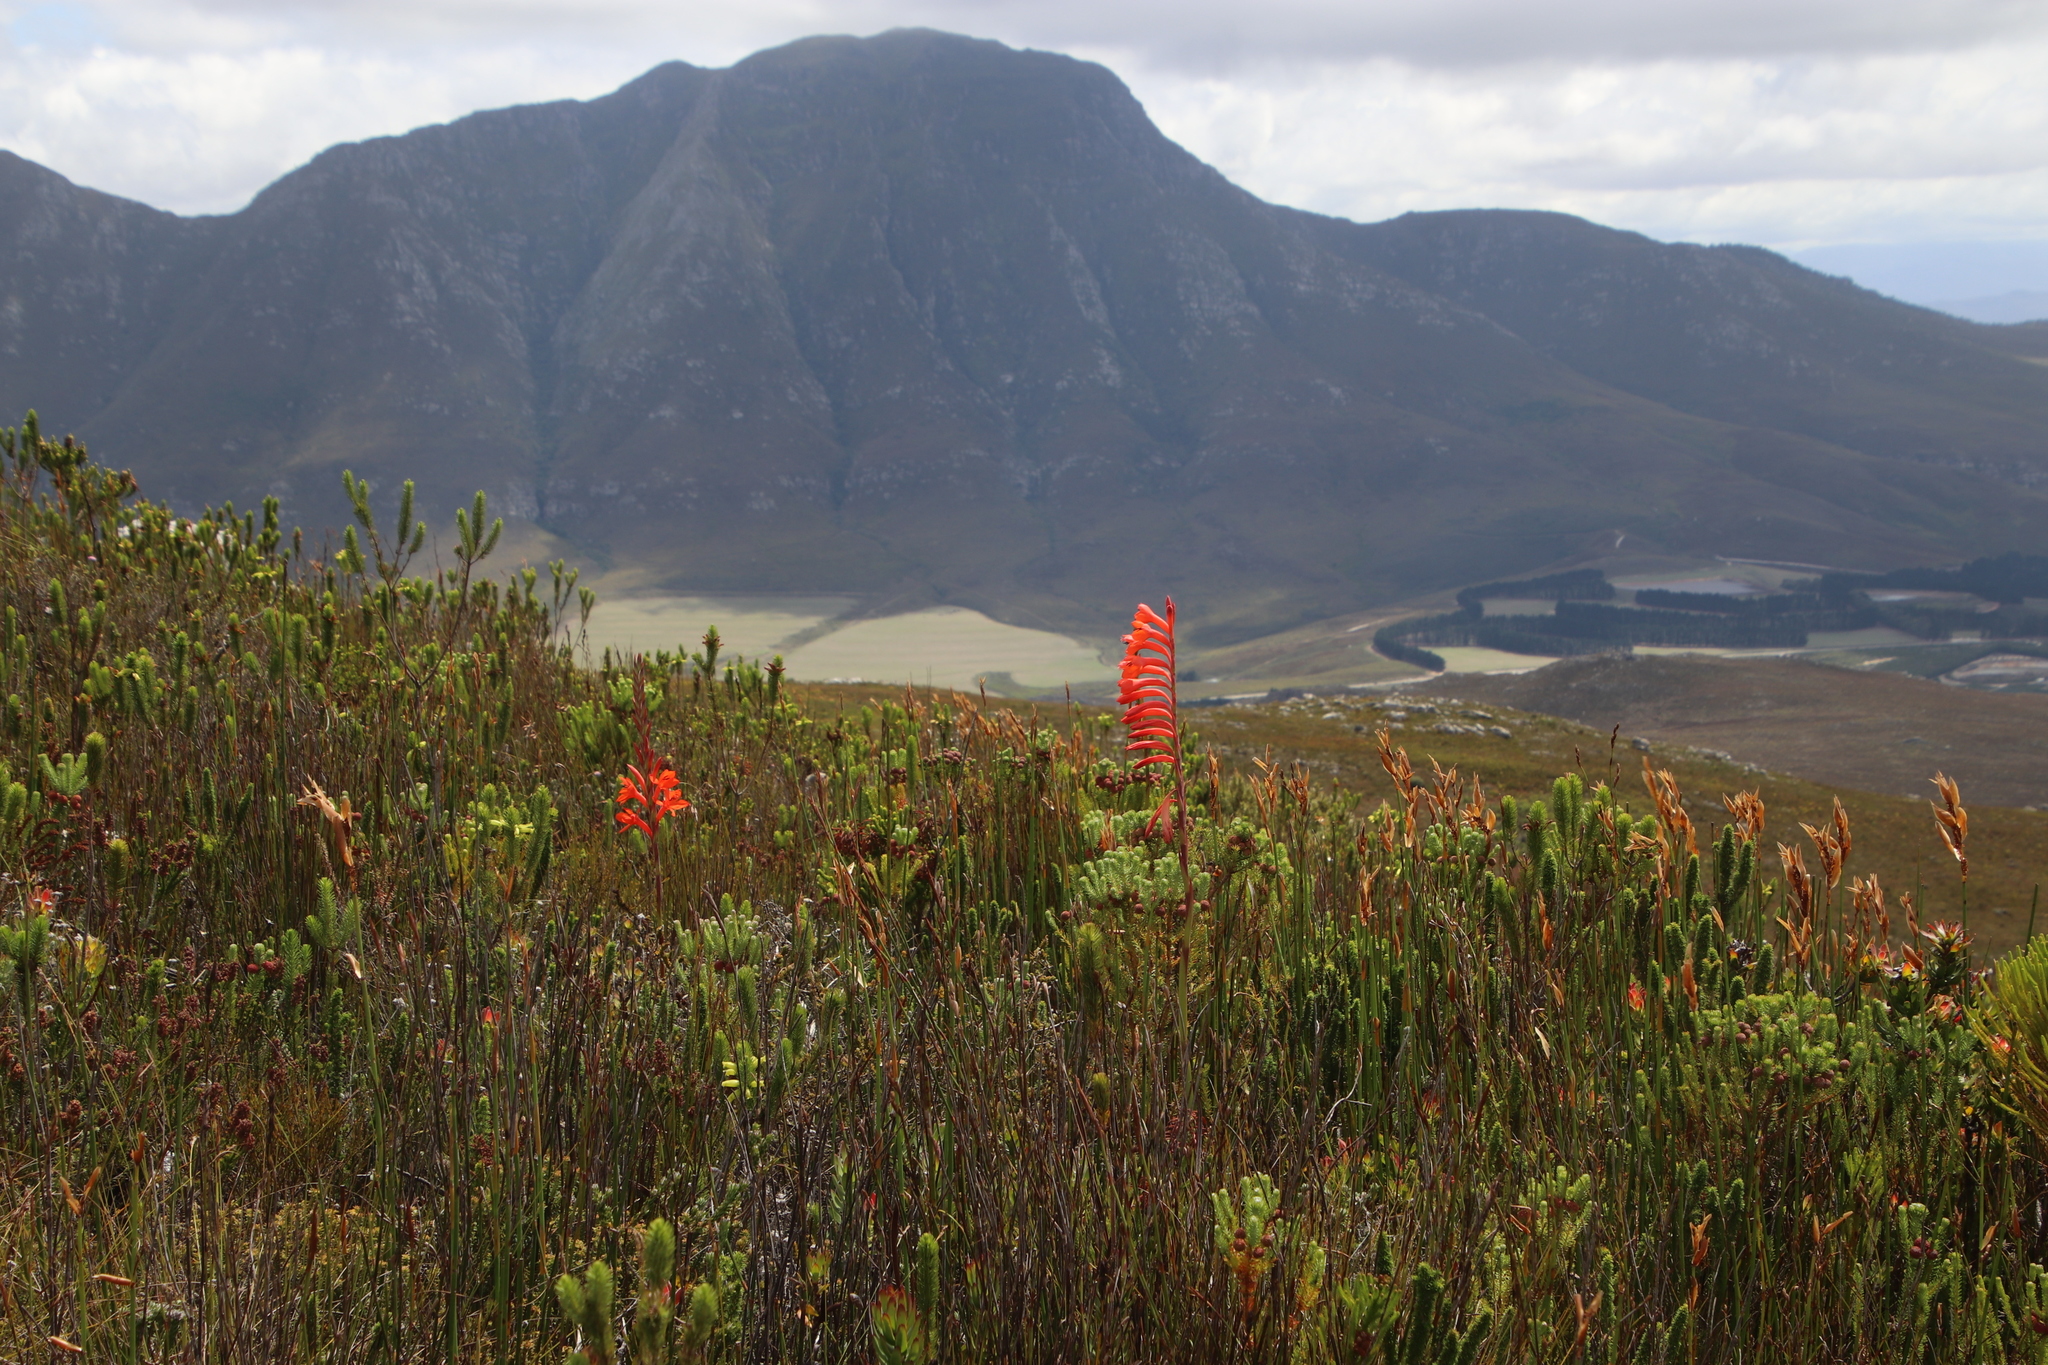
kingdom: Plantae
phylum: Tracheophyta
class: Liliopsida
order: Asparagales
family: Iridaceae
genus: Watsonia
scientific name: Watsonia schlechteri
